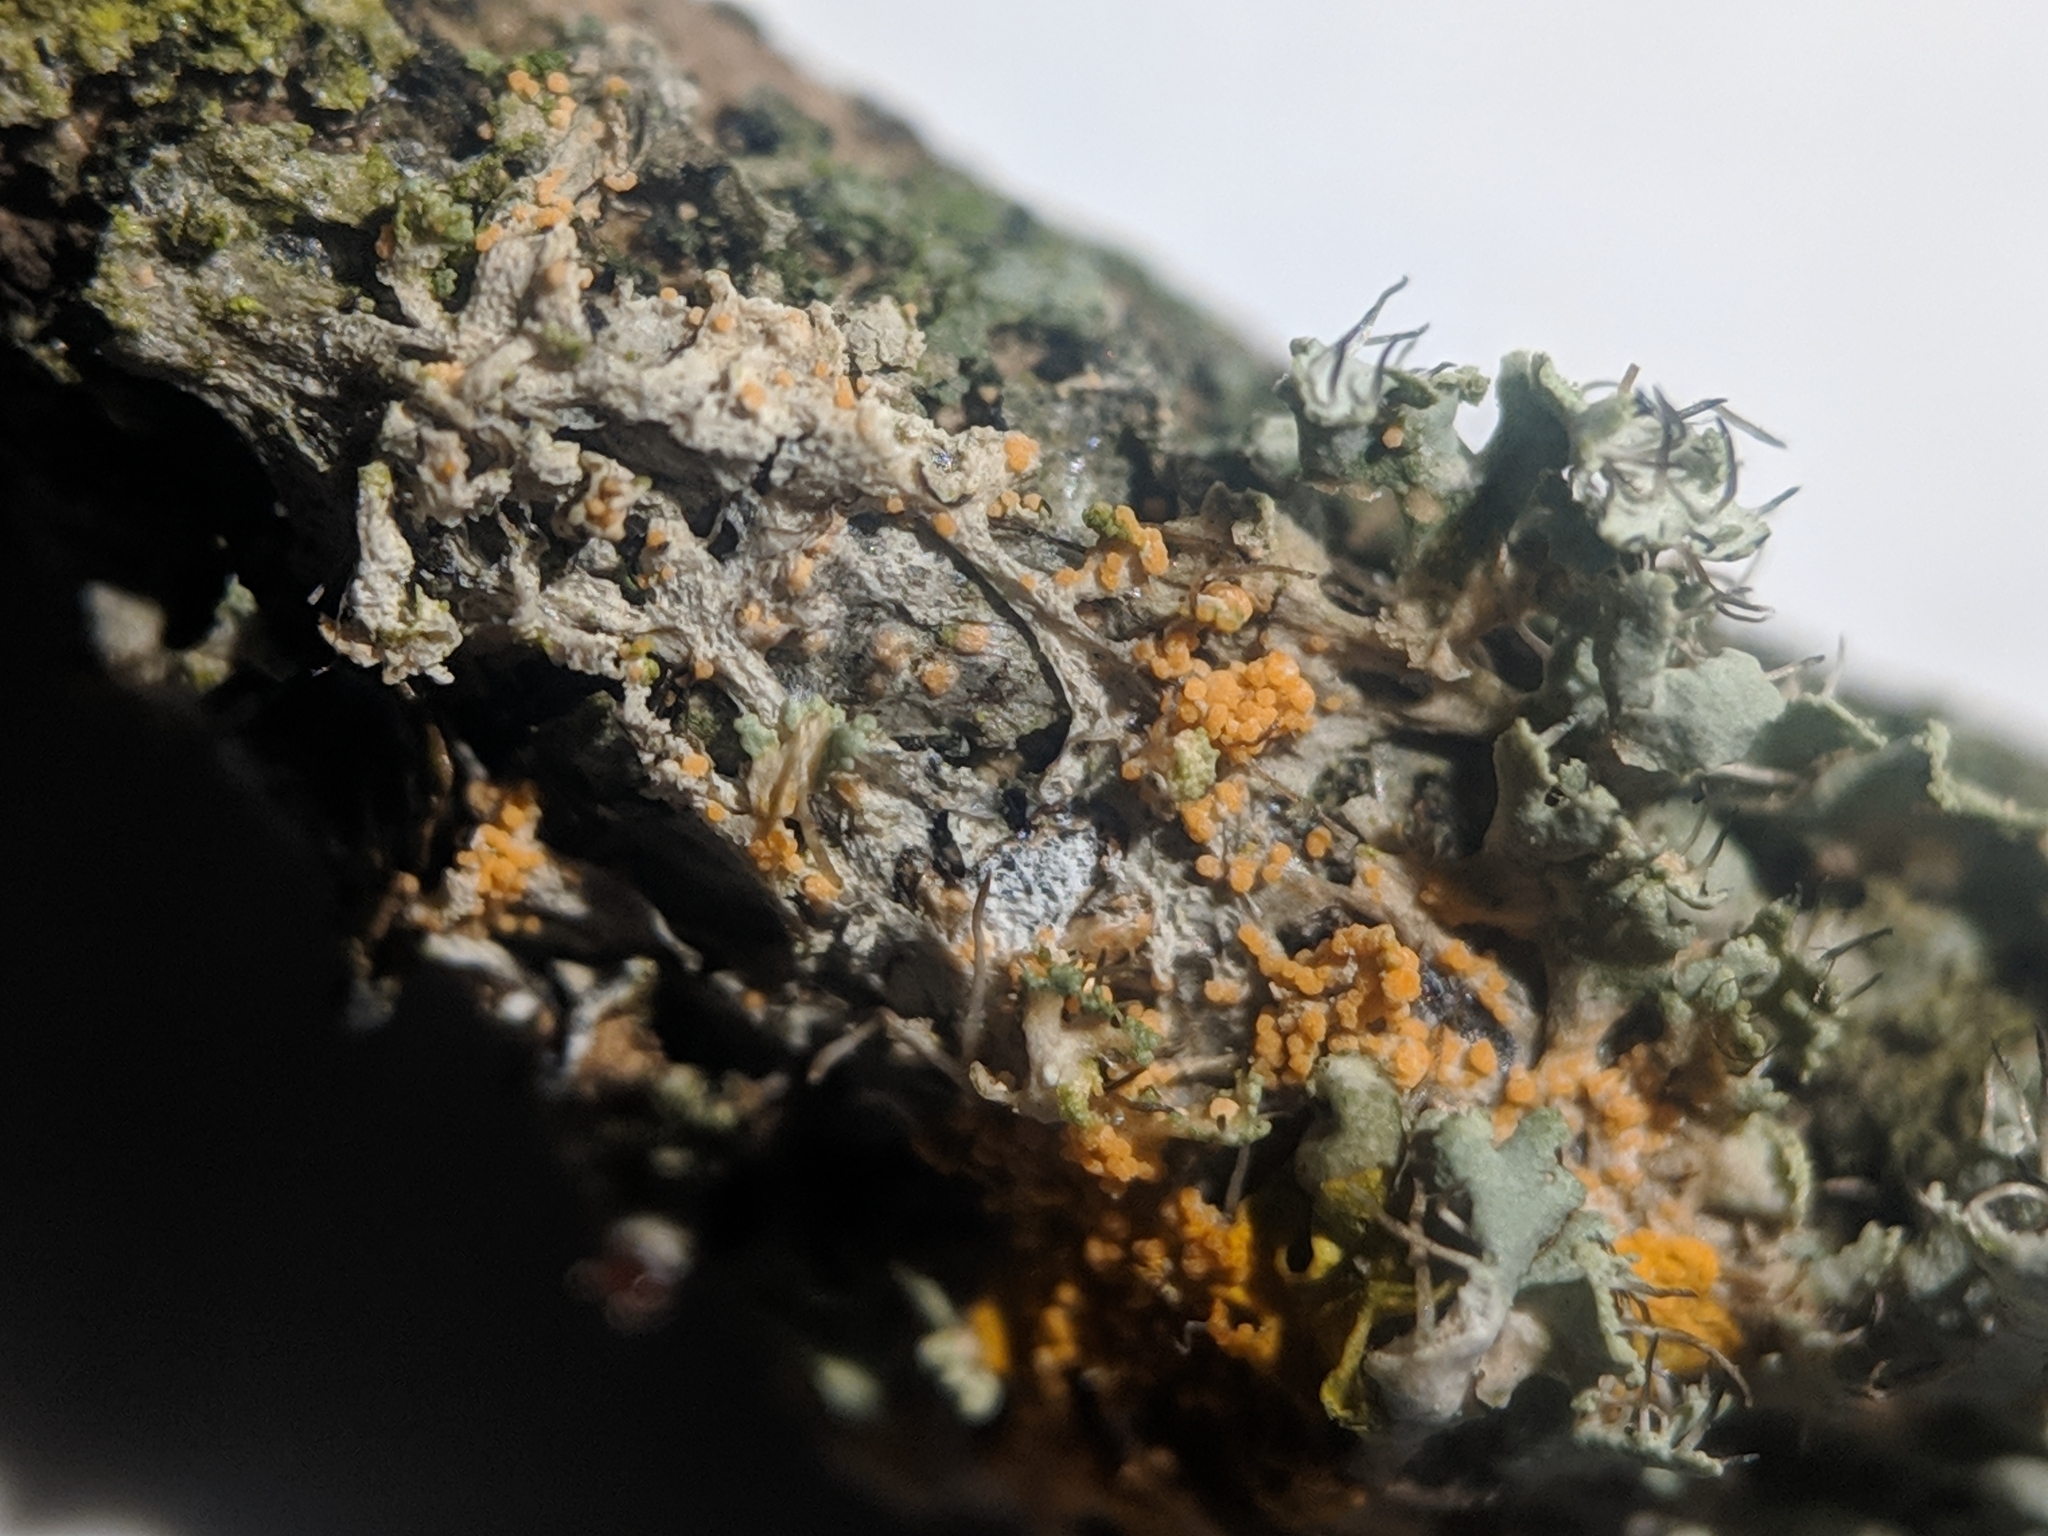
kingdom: Fungi
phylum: Basidiomycota
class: Agaricomycetes
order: Corticiales
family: Corticiaceae
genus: Erythricium
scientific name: Erythricium aurantiacum
